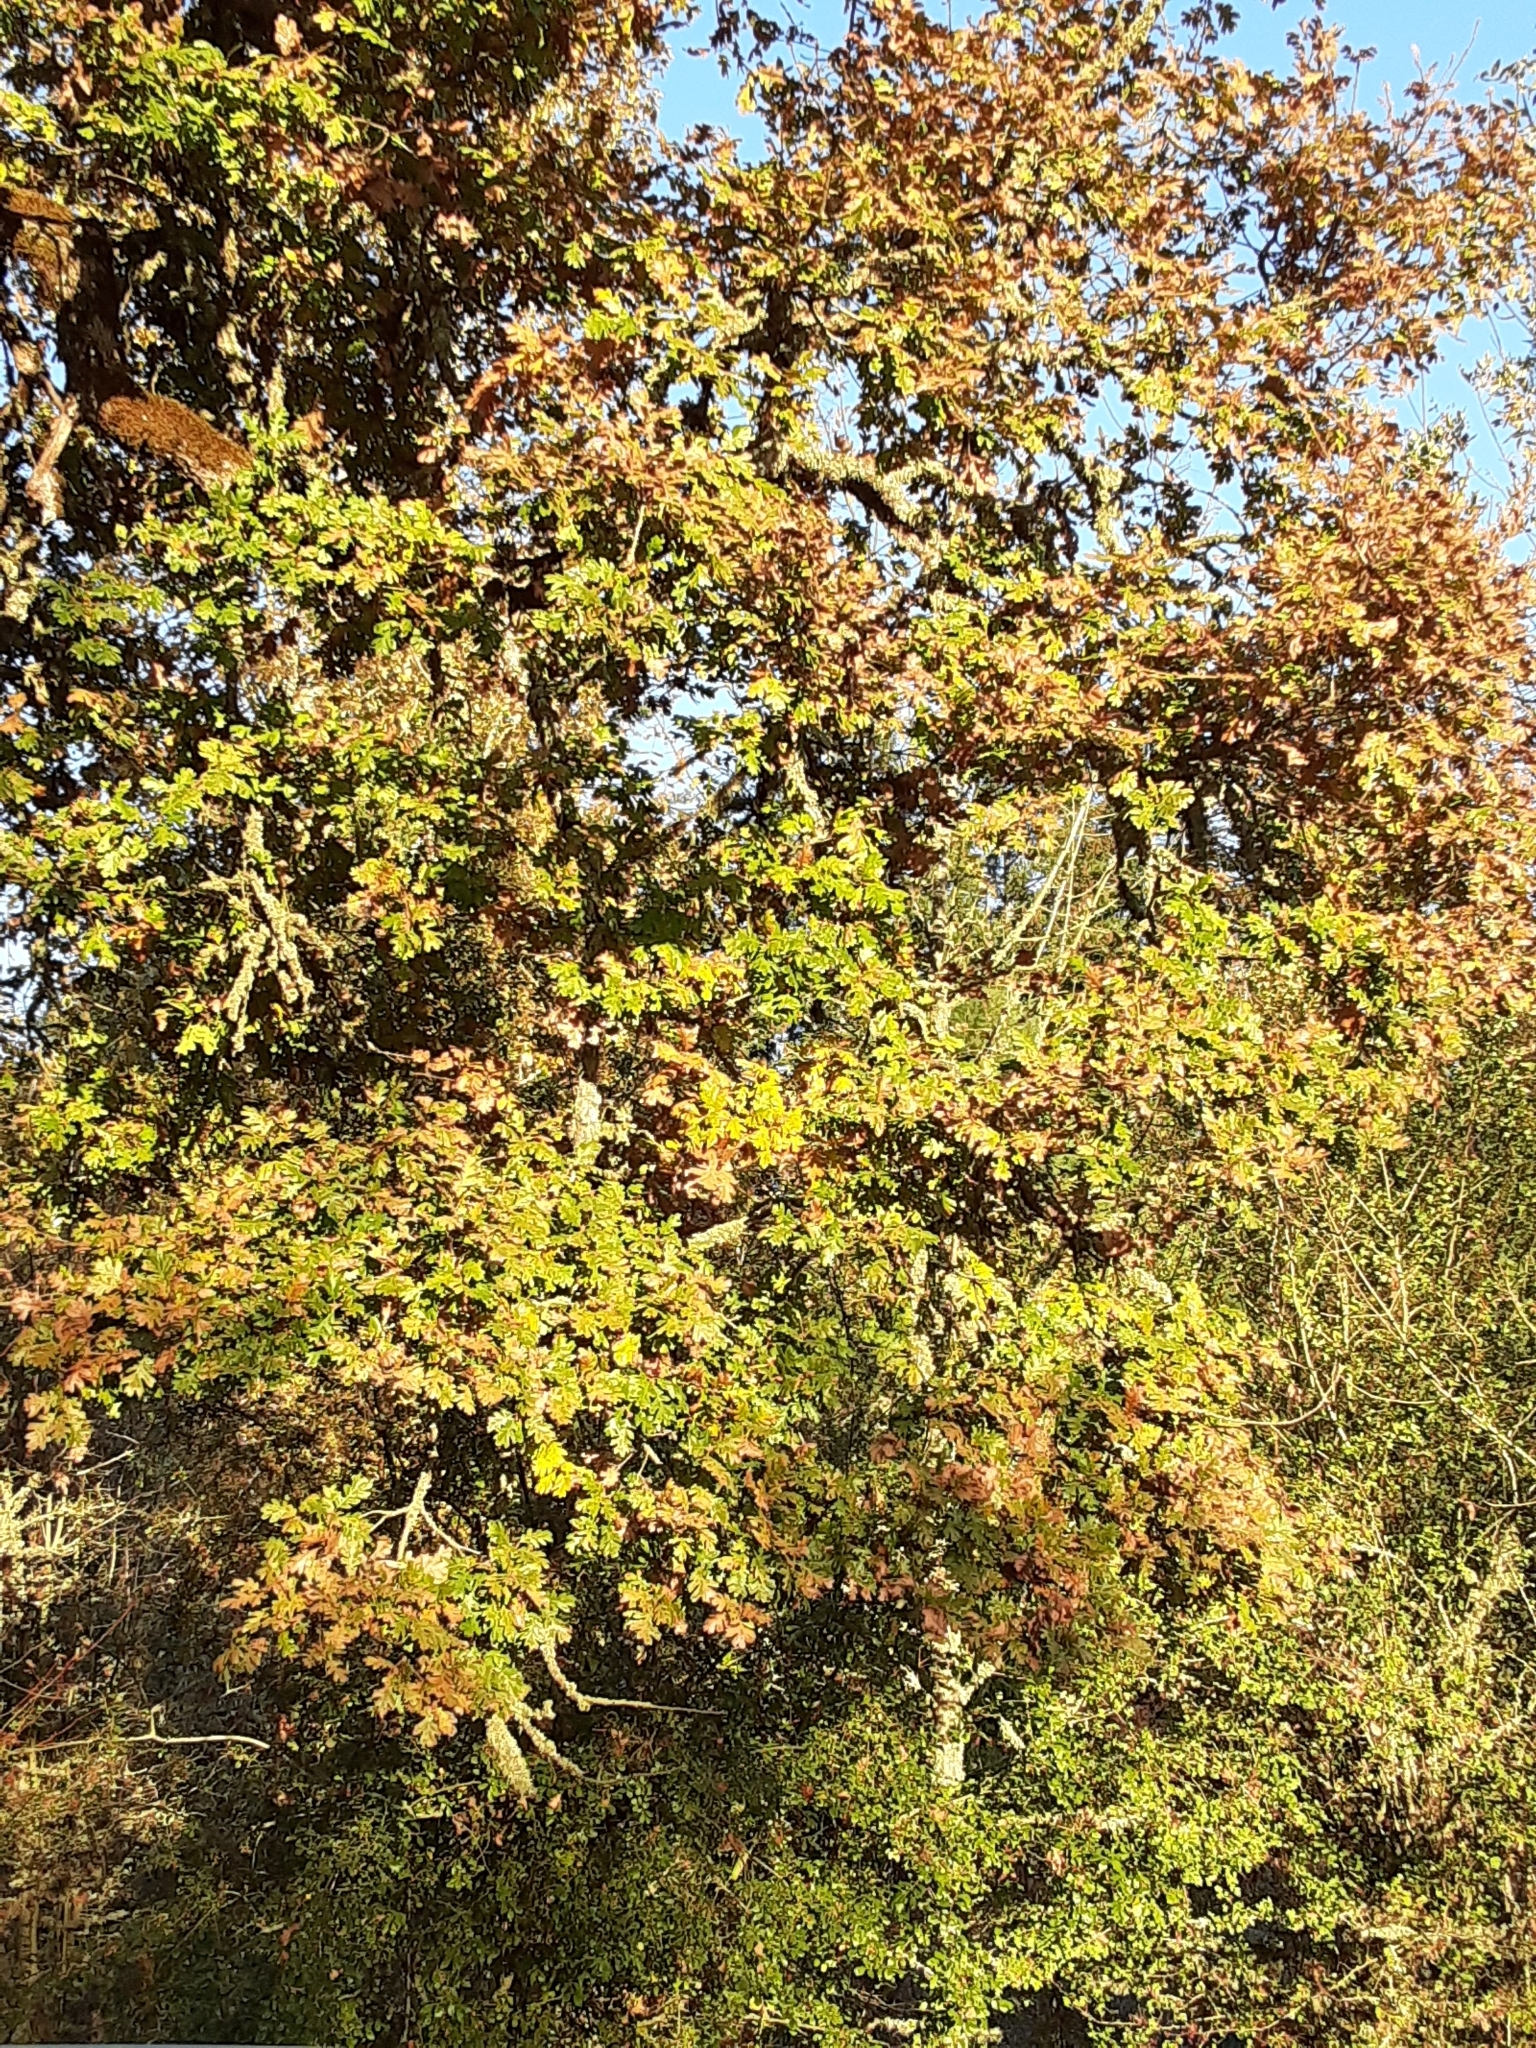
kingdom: Plantae
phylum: Tracheophyta
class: Magnoliopsida
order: Fagales
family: Fagaceae
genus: Quercus
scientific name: Quercus garryana
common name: Garry oak
